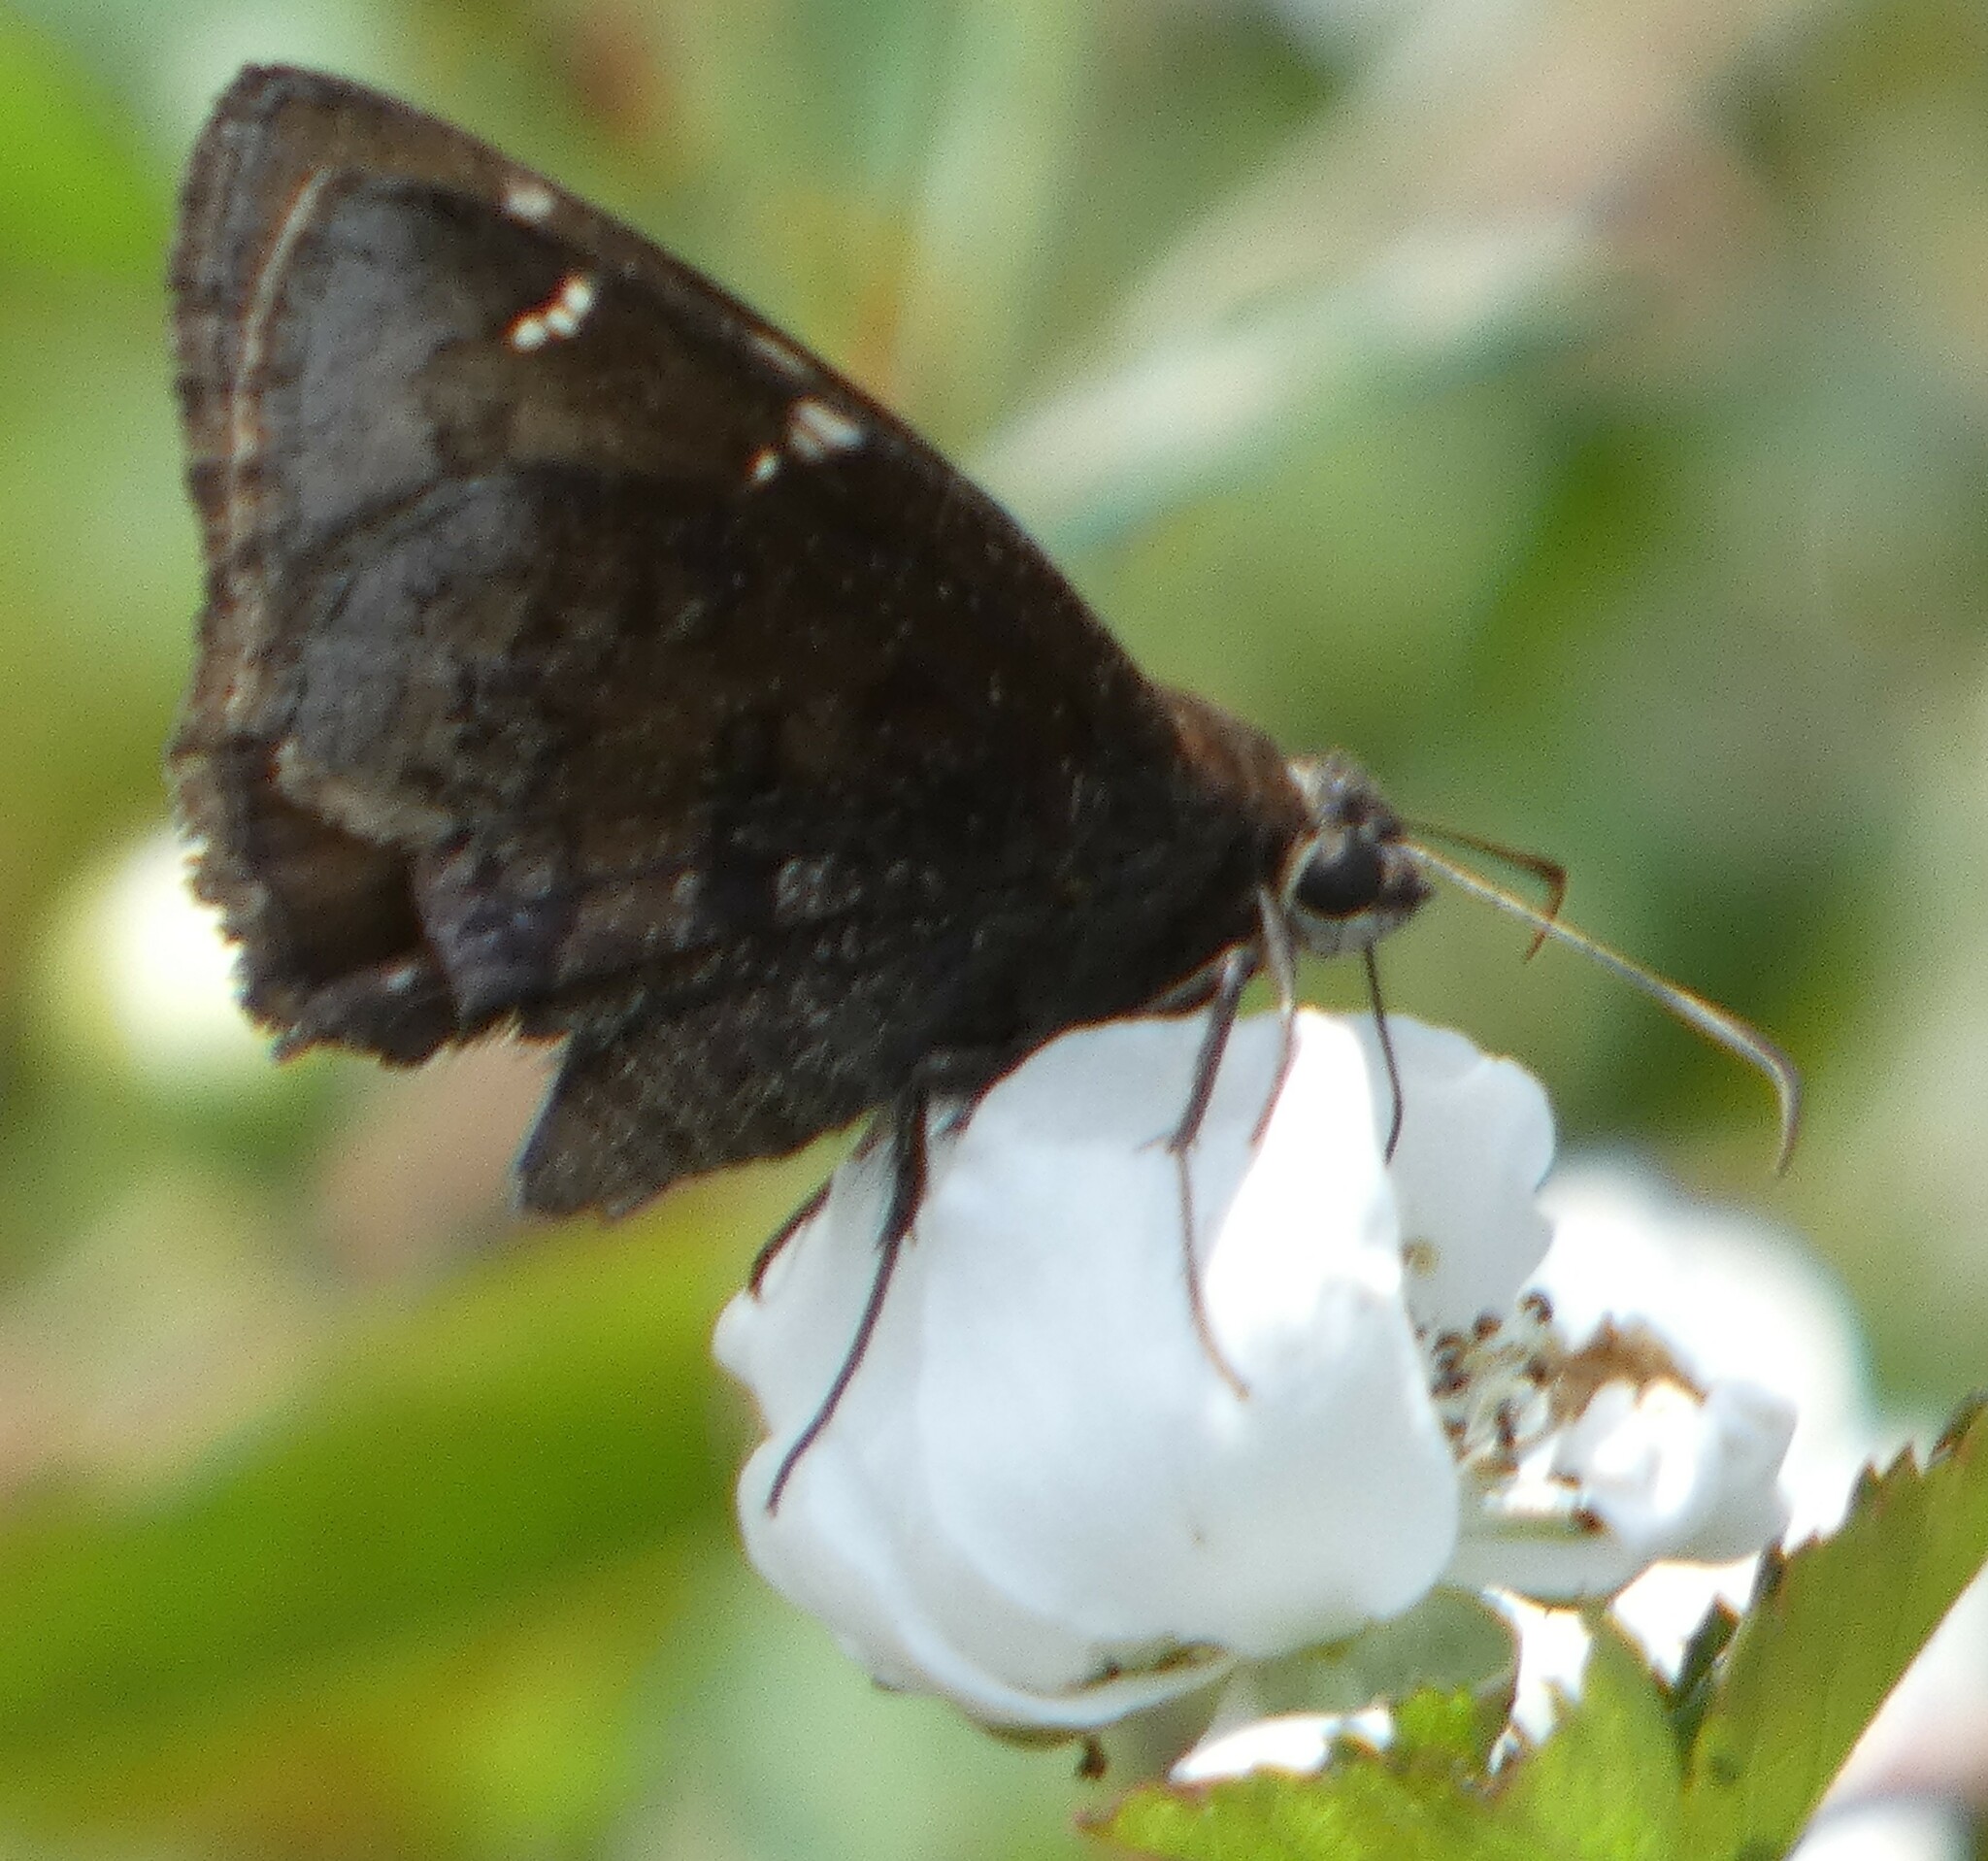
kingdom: Animalia
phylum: Arthropoda
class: Insecta
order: Lepidoptera
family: Hesperiidae
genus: Thorybes
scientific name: Thorybes mexicana
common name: Mexican cloudywing
